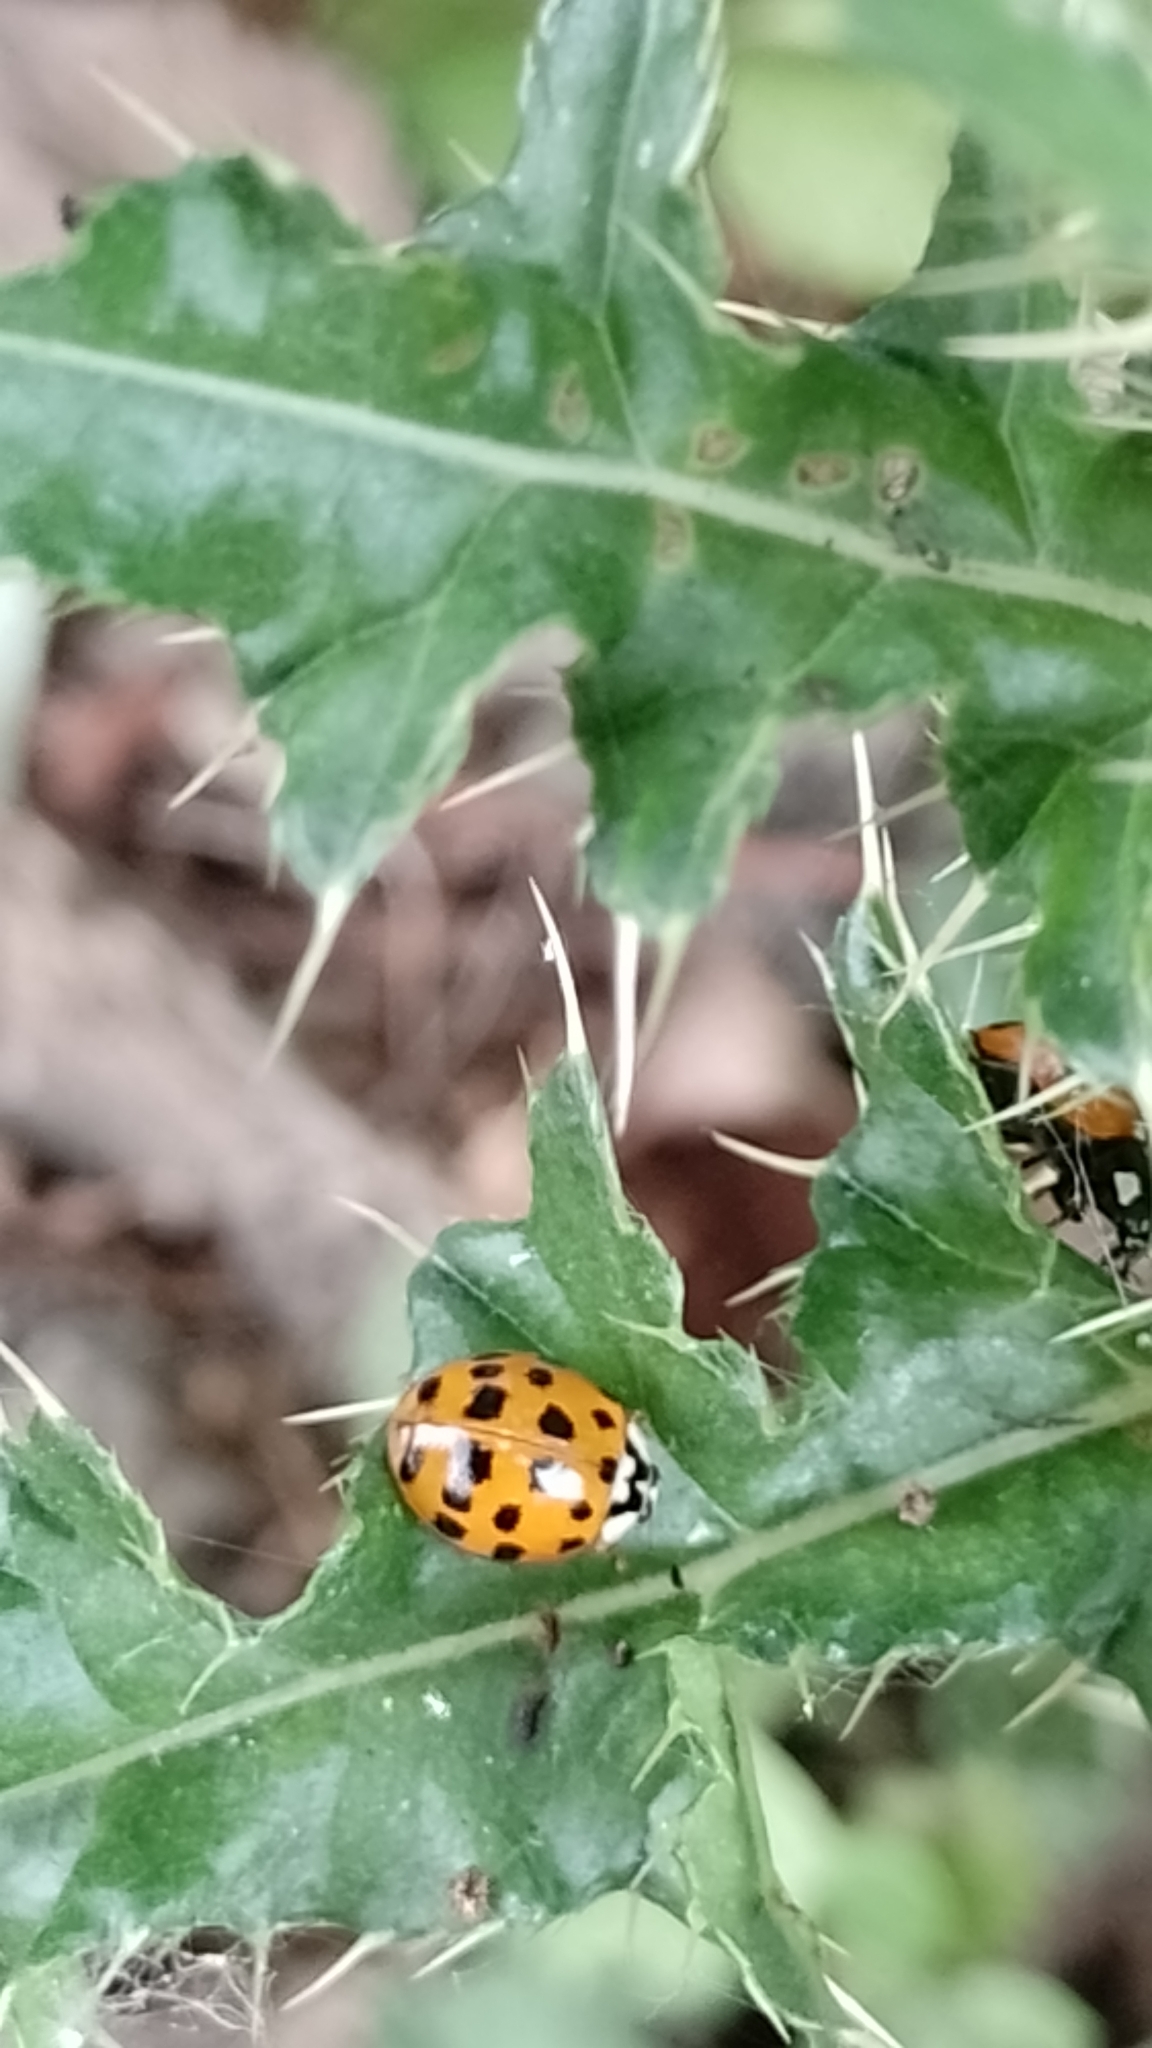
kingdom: Animalia
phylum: Arthropoda
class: Insecta
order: Coleoptera
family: Coccinellidae
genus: Harmonia
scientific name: Harmonia axyridis
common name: Harlequin ladybird
